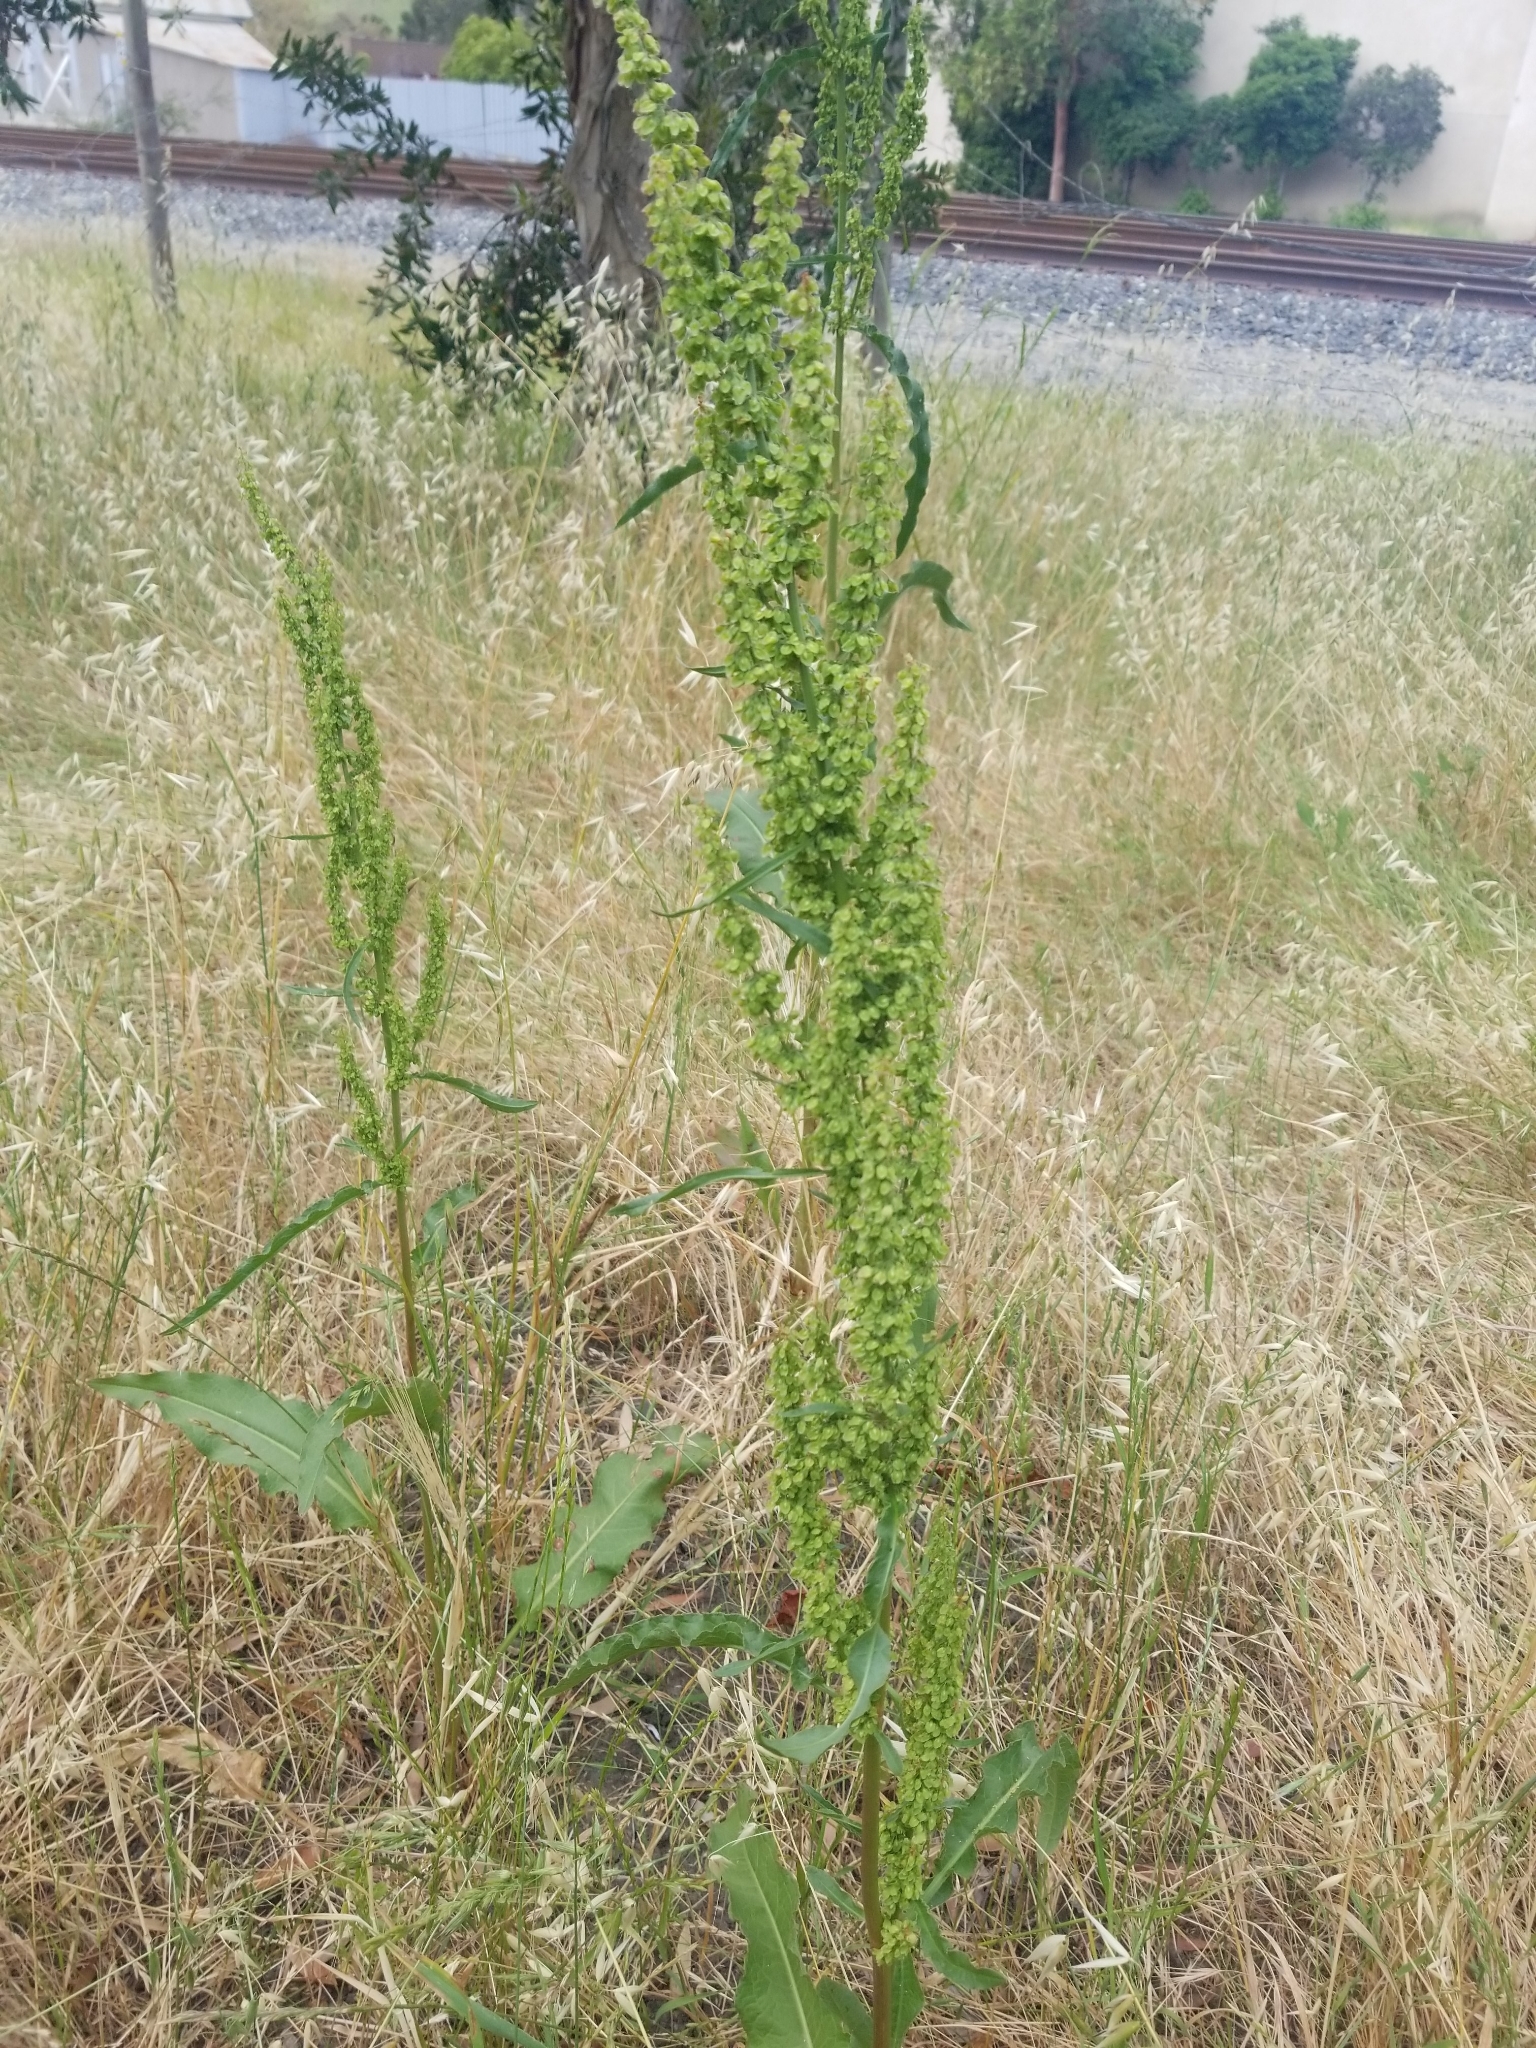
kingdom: Plantae
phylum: Tracheophyta
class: Magnoliopsida
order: Caryophyllales
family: Polygonaceae
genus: Rumex
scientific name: Rumex crispus
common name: Curled dock
